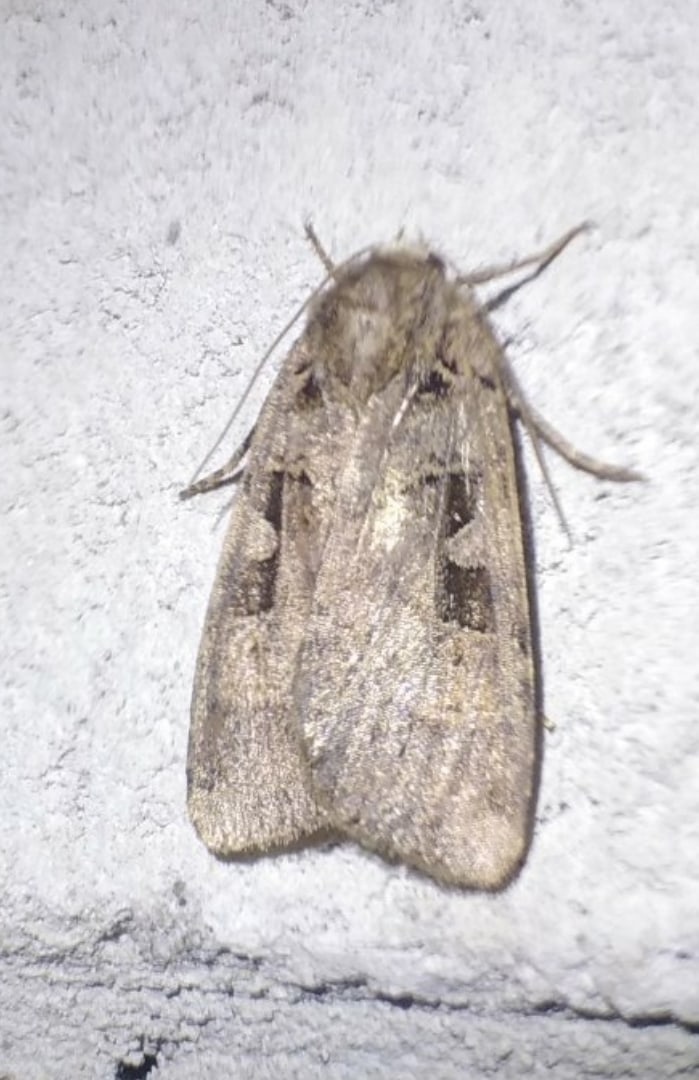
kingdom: Animalia
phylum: Arthropoda
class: Insecta
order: Lepidoptera
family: Noctuidae
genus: Xestia
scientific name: Xestia ditrapezium
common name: Triple-spotted clay
